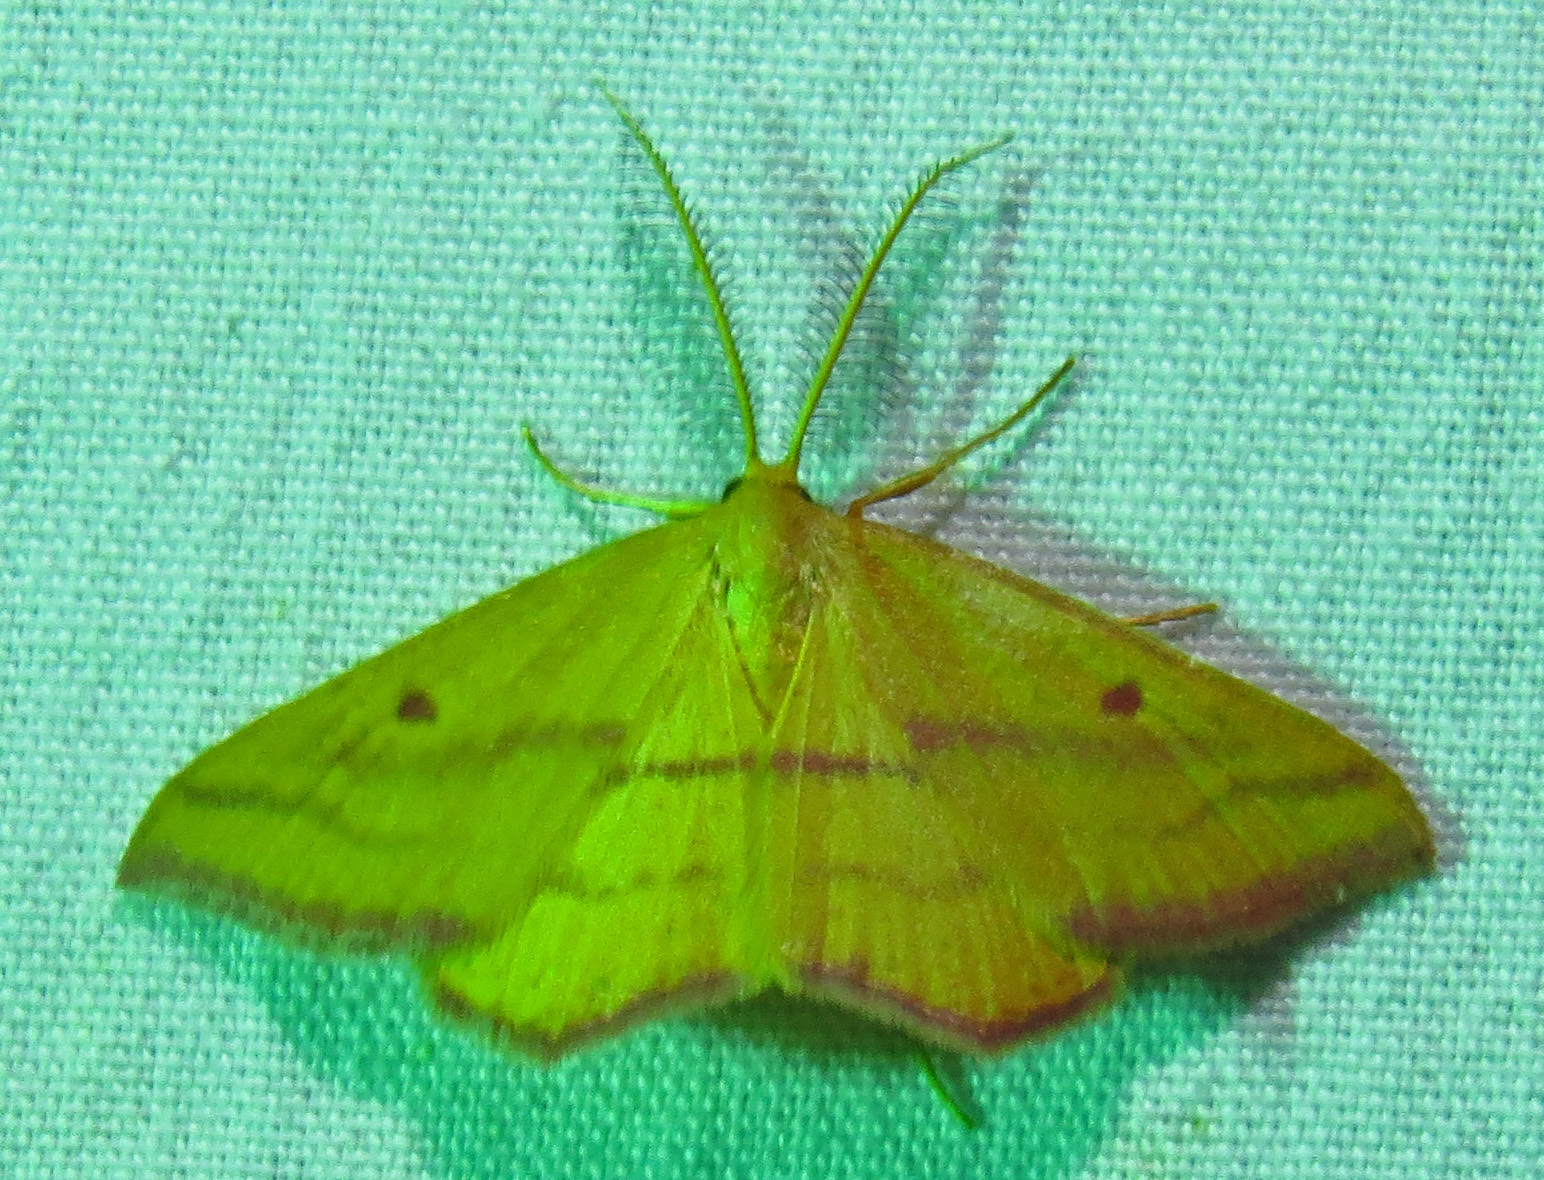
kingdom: Animalia
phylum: Arthropoda
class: Insecta
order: Lepidoptera
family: Geometridae
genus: Haematopis
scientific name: Haematopis grataria
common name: Chickweed geometer
